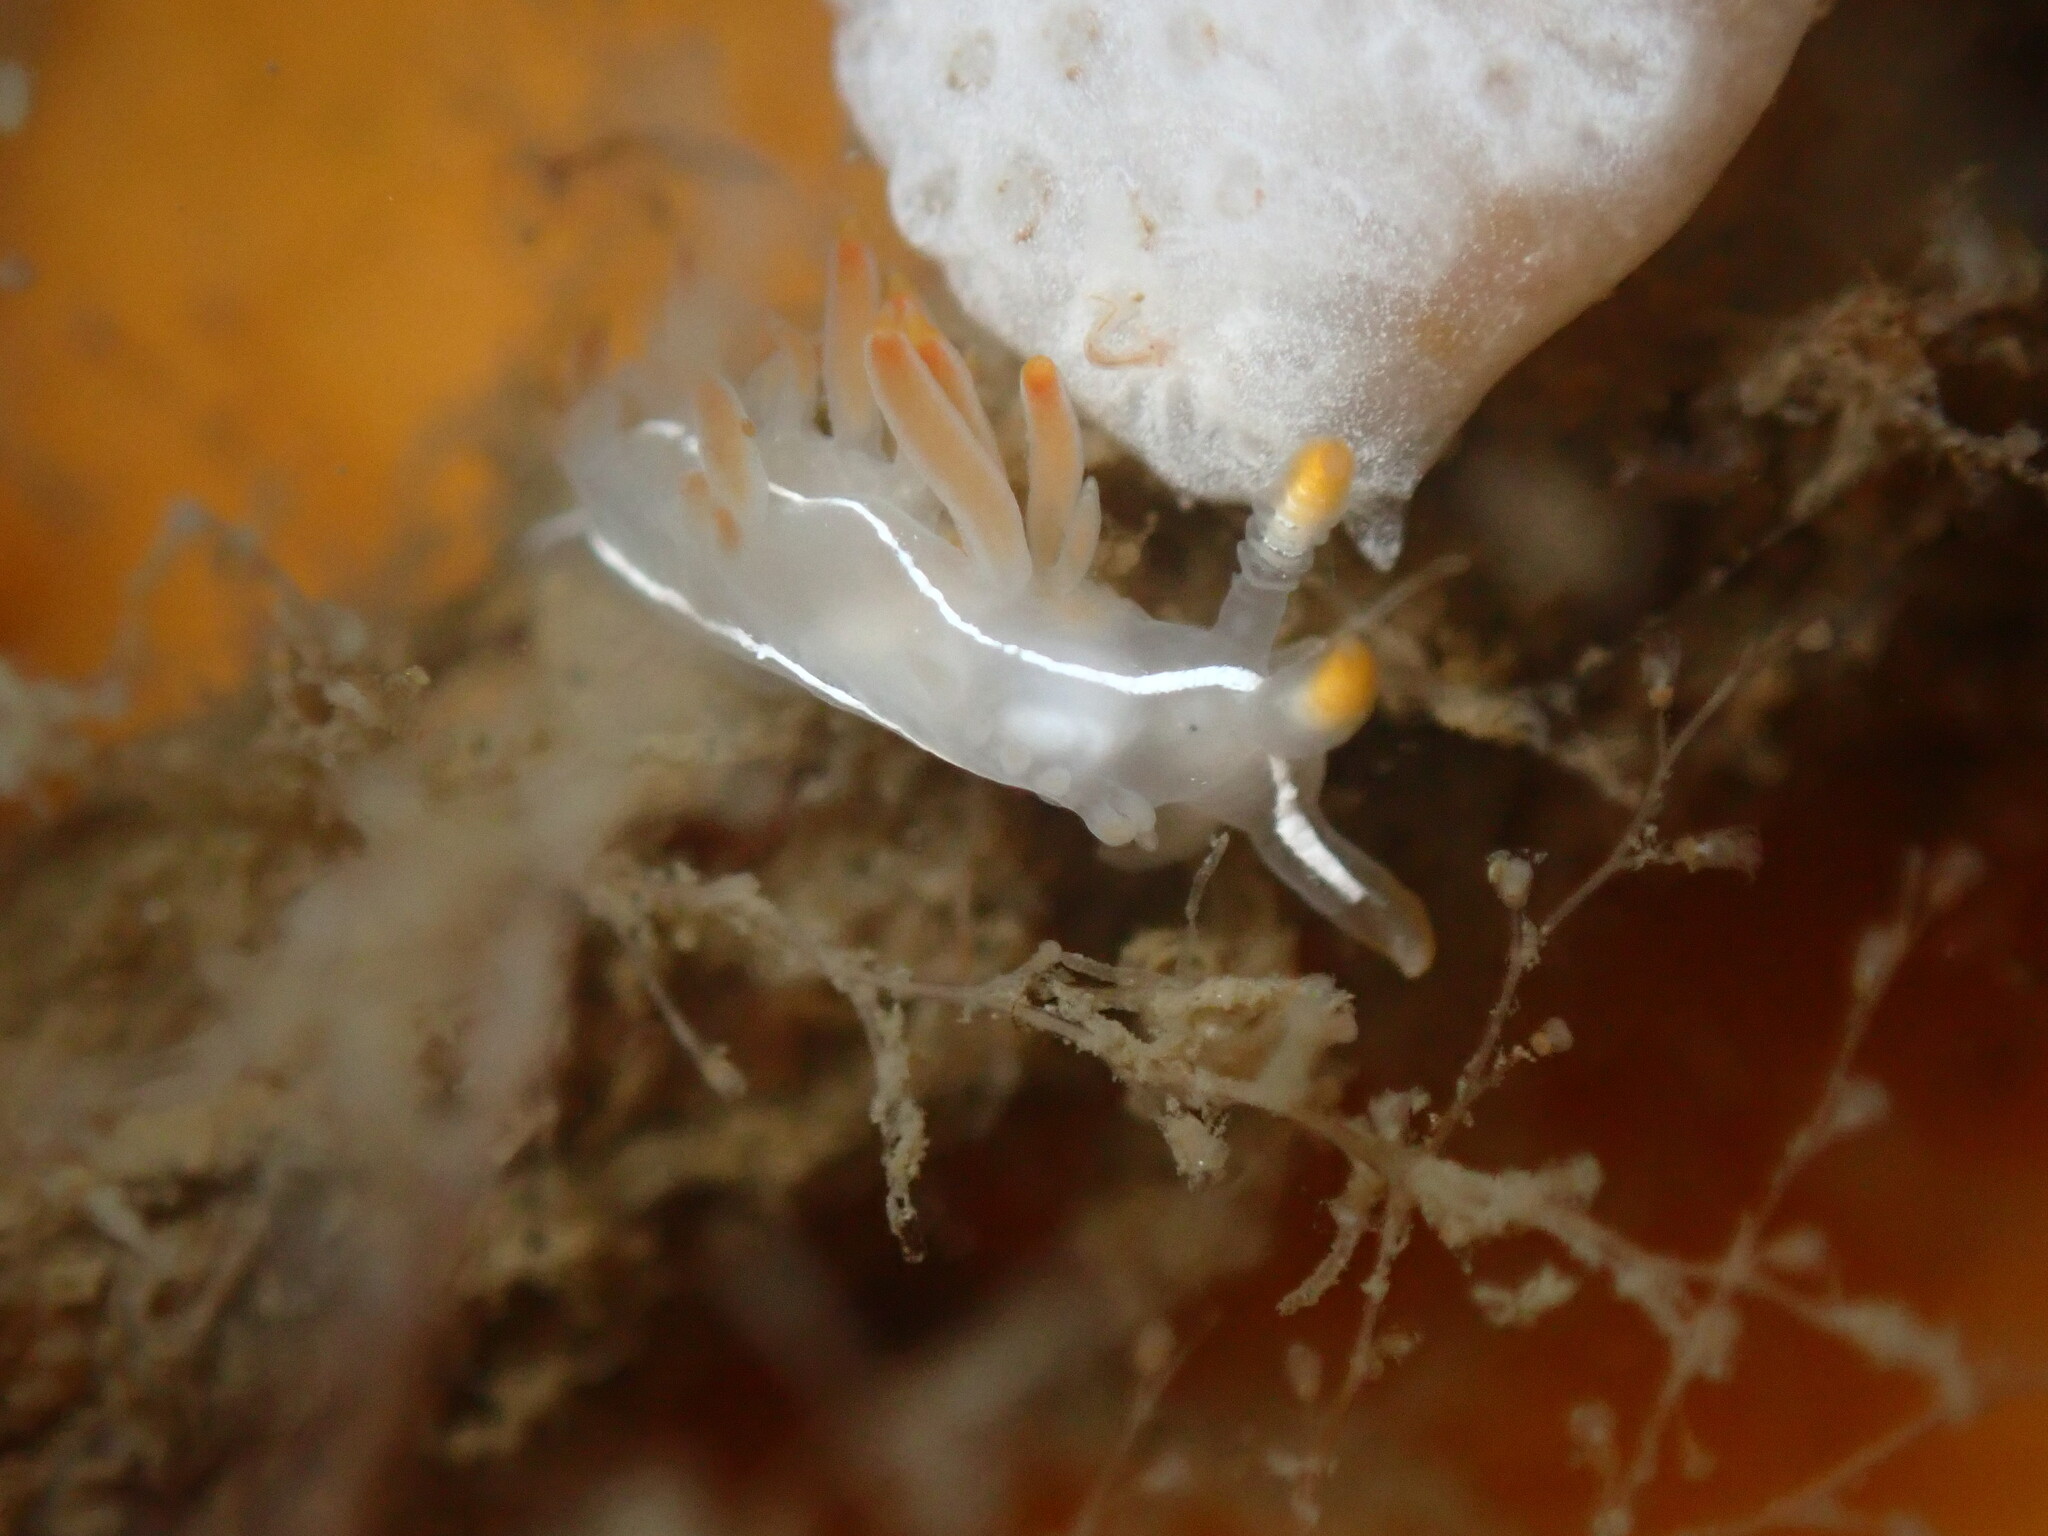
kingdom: Animalia
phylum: Mollusca
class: Gastropoda
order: Nudibranchia
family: Coryphellidae
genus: Coryphella
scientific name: Coryphella trilineata
